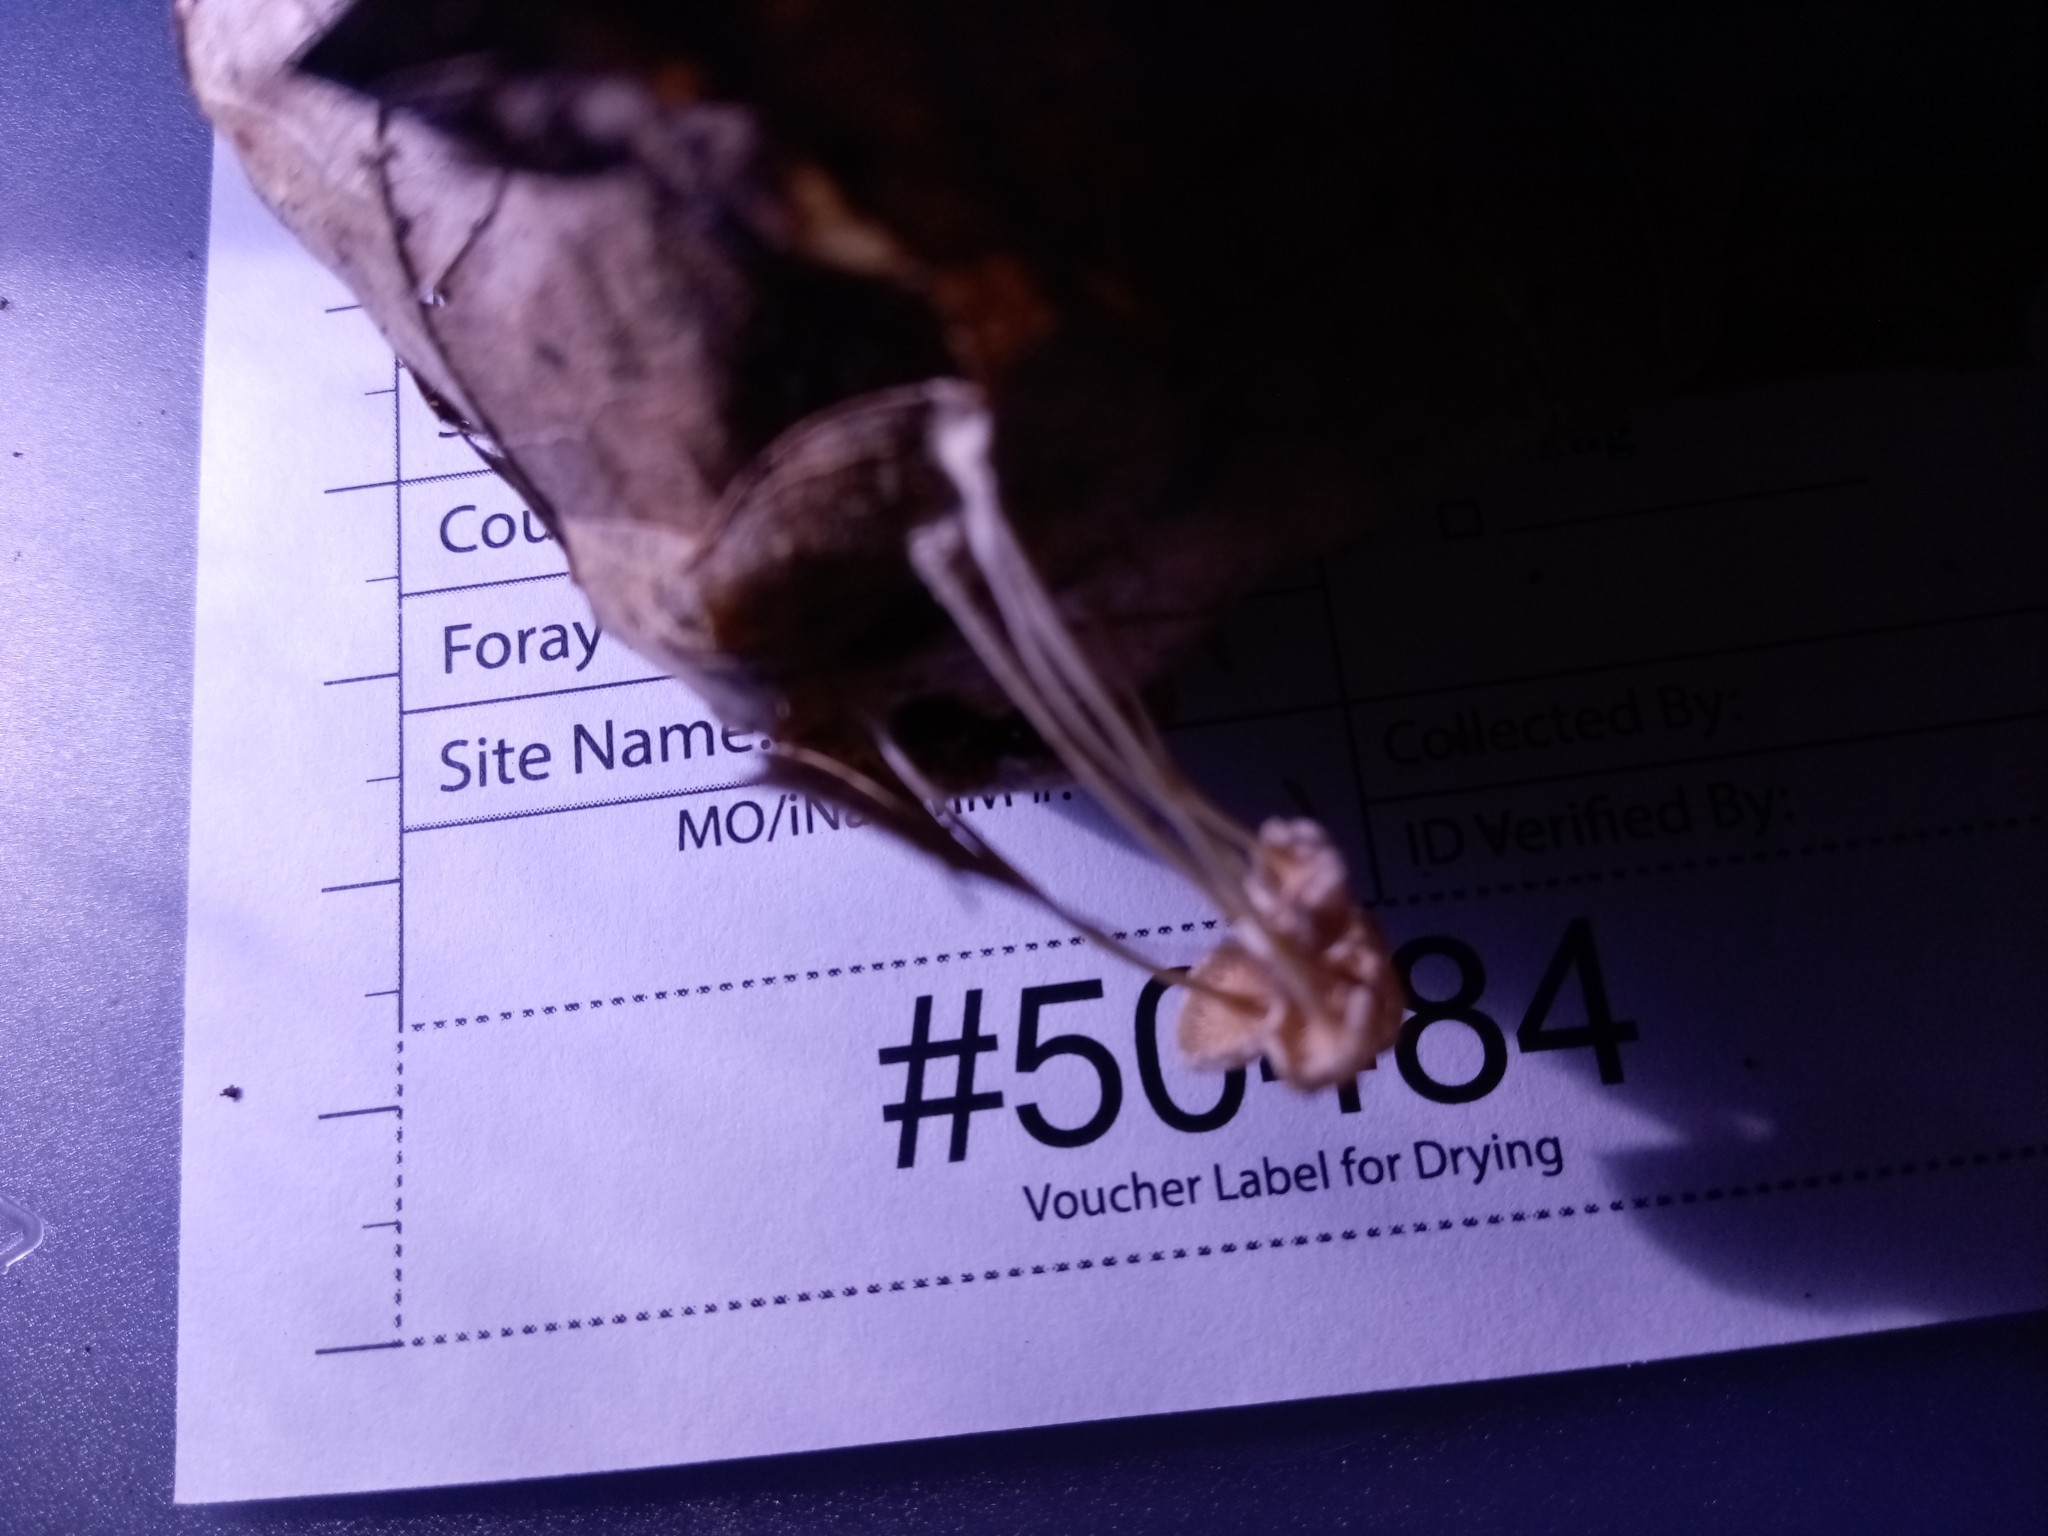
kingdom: Fungi
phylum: Basidiomycota
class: Agaricomycetes
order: Agaricales
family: Mycenaceae
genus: Resinomycena
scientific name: Resinomycena rhododendri
